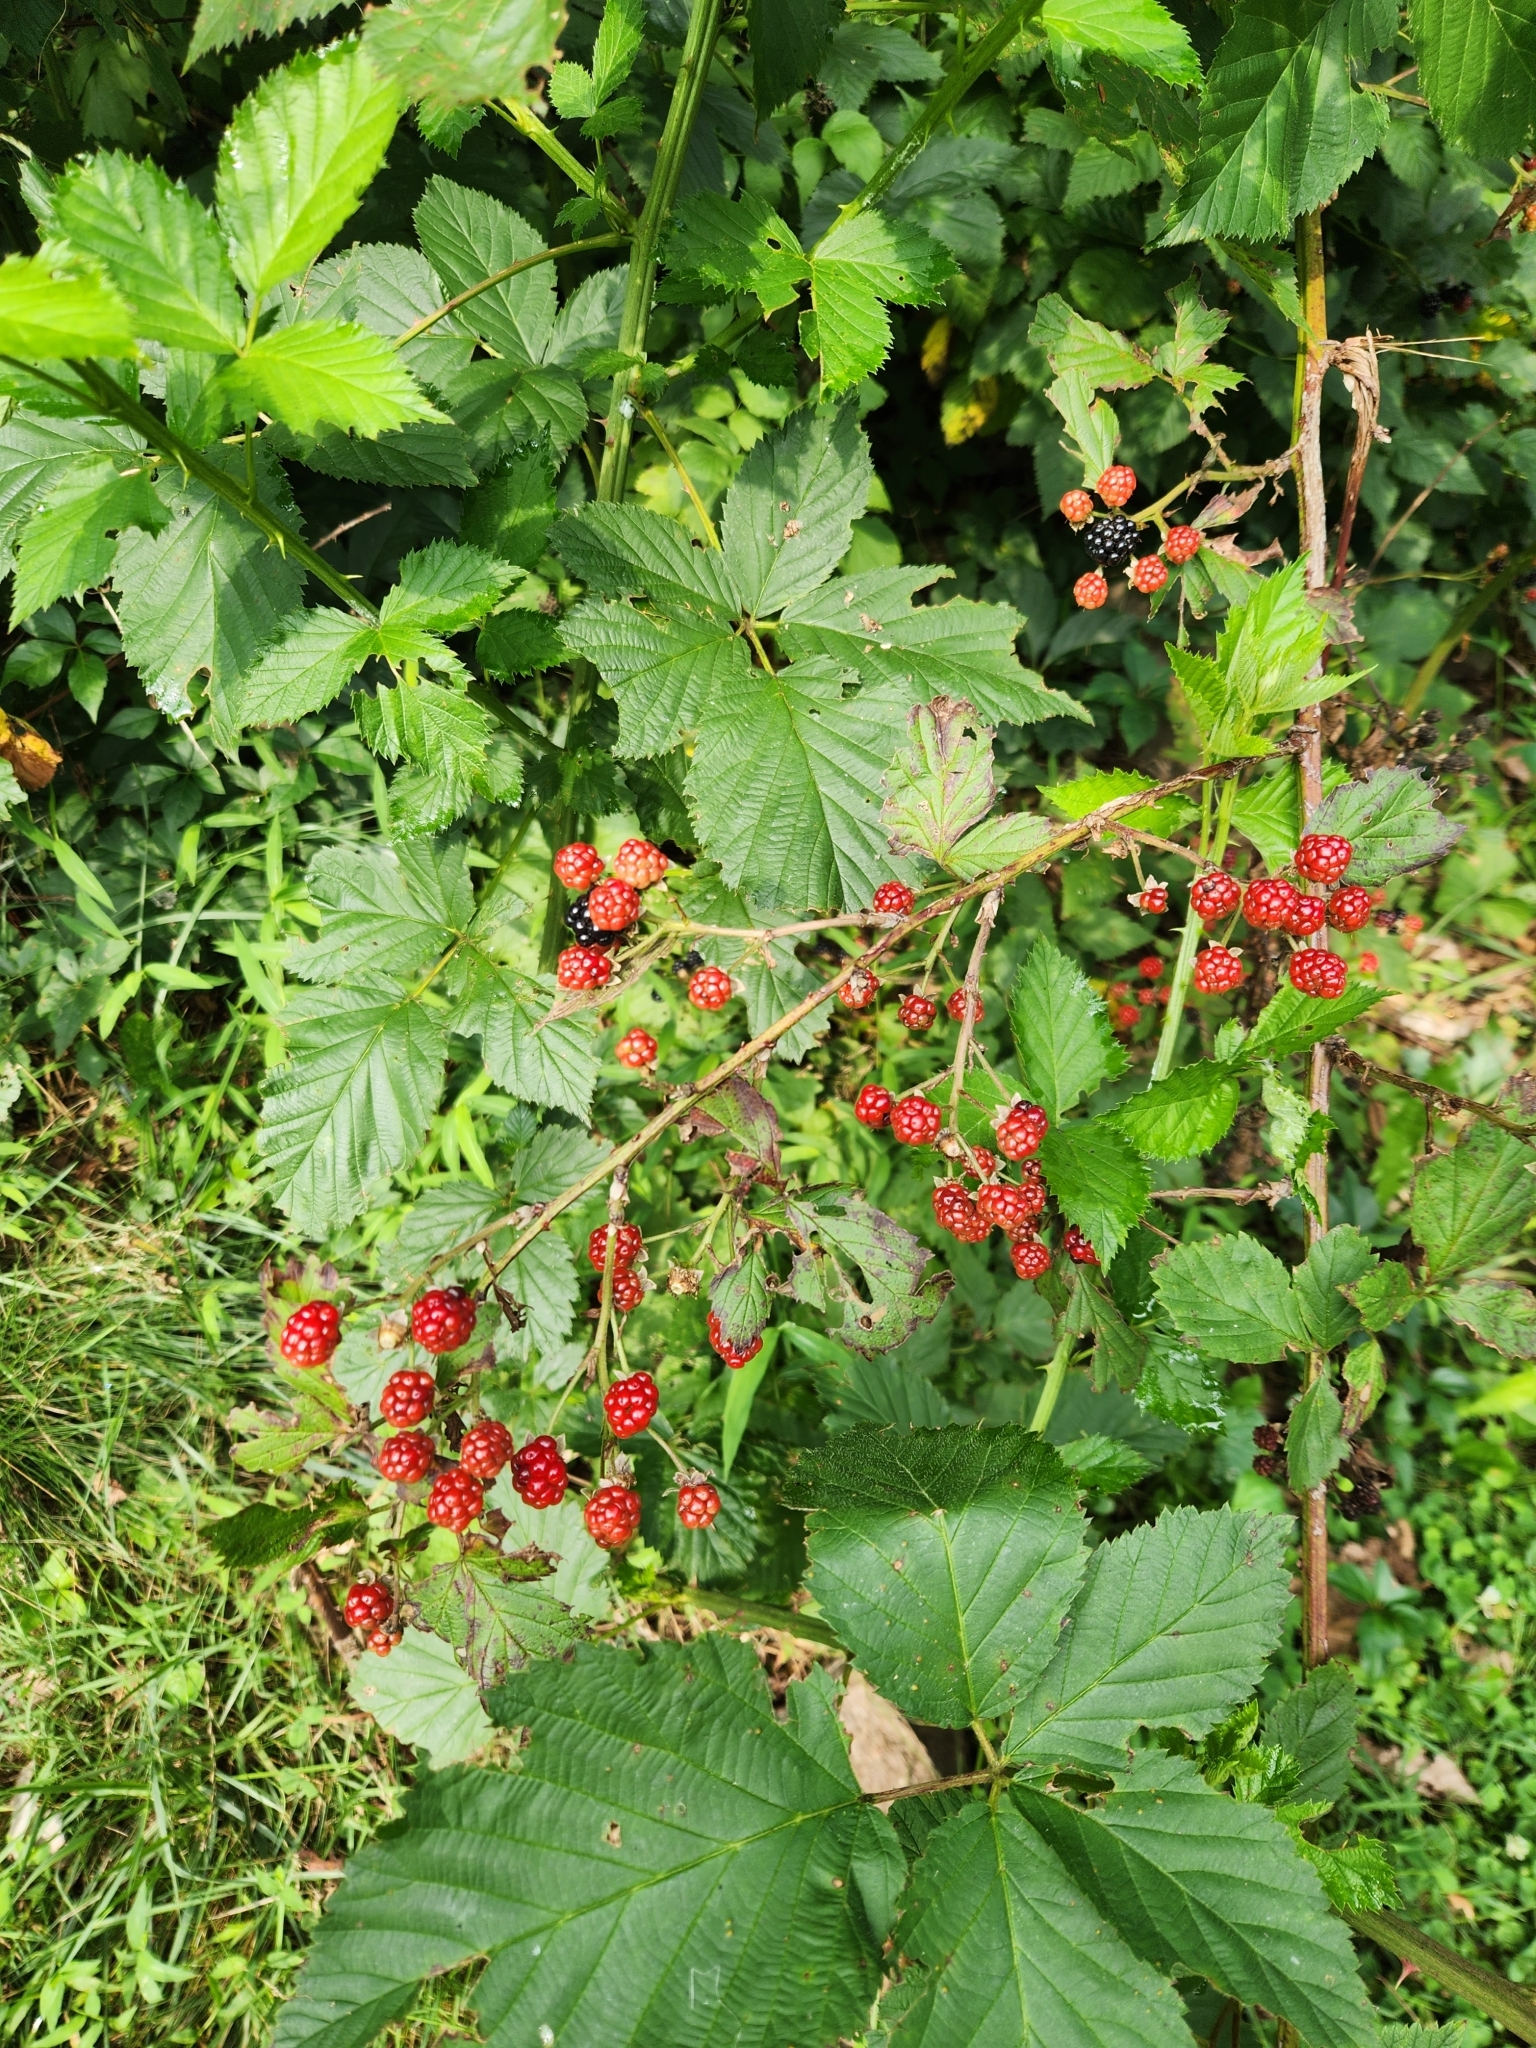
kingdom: Plantae
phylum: Tracheophyta
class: Magnoliopsida
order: Rosales
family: Rosaceae
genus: Rubus
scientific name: Rubus allegheniensis
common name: Allegheny blackberry
